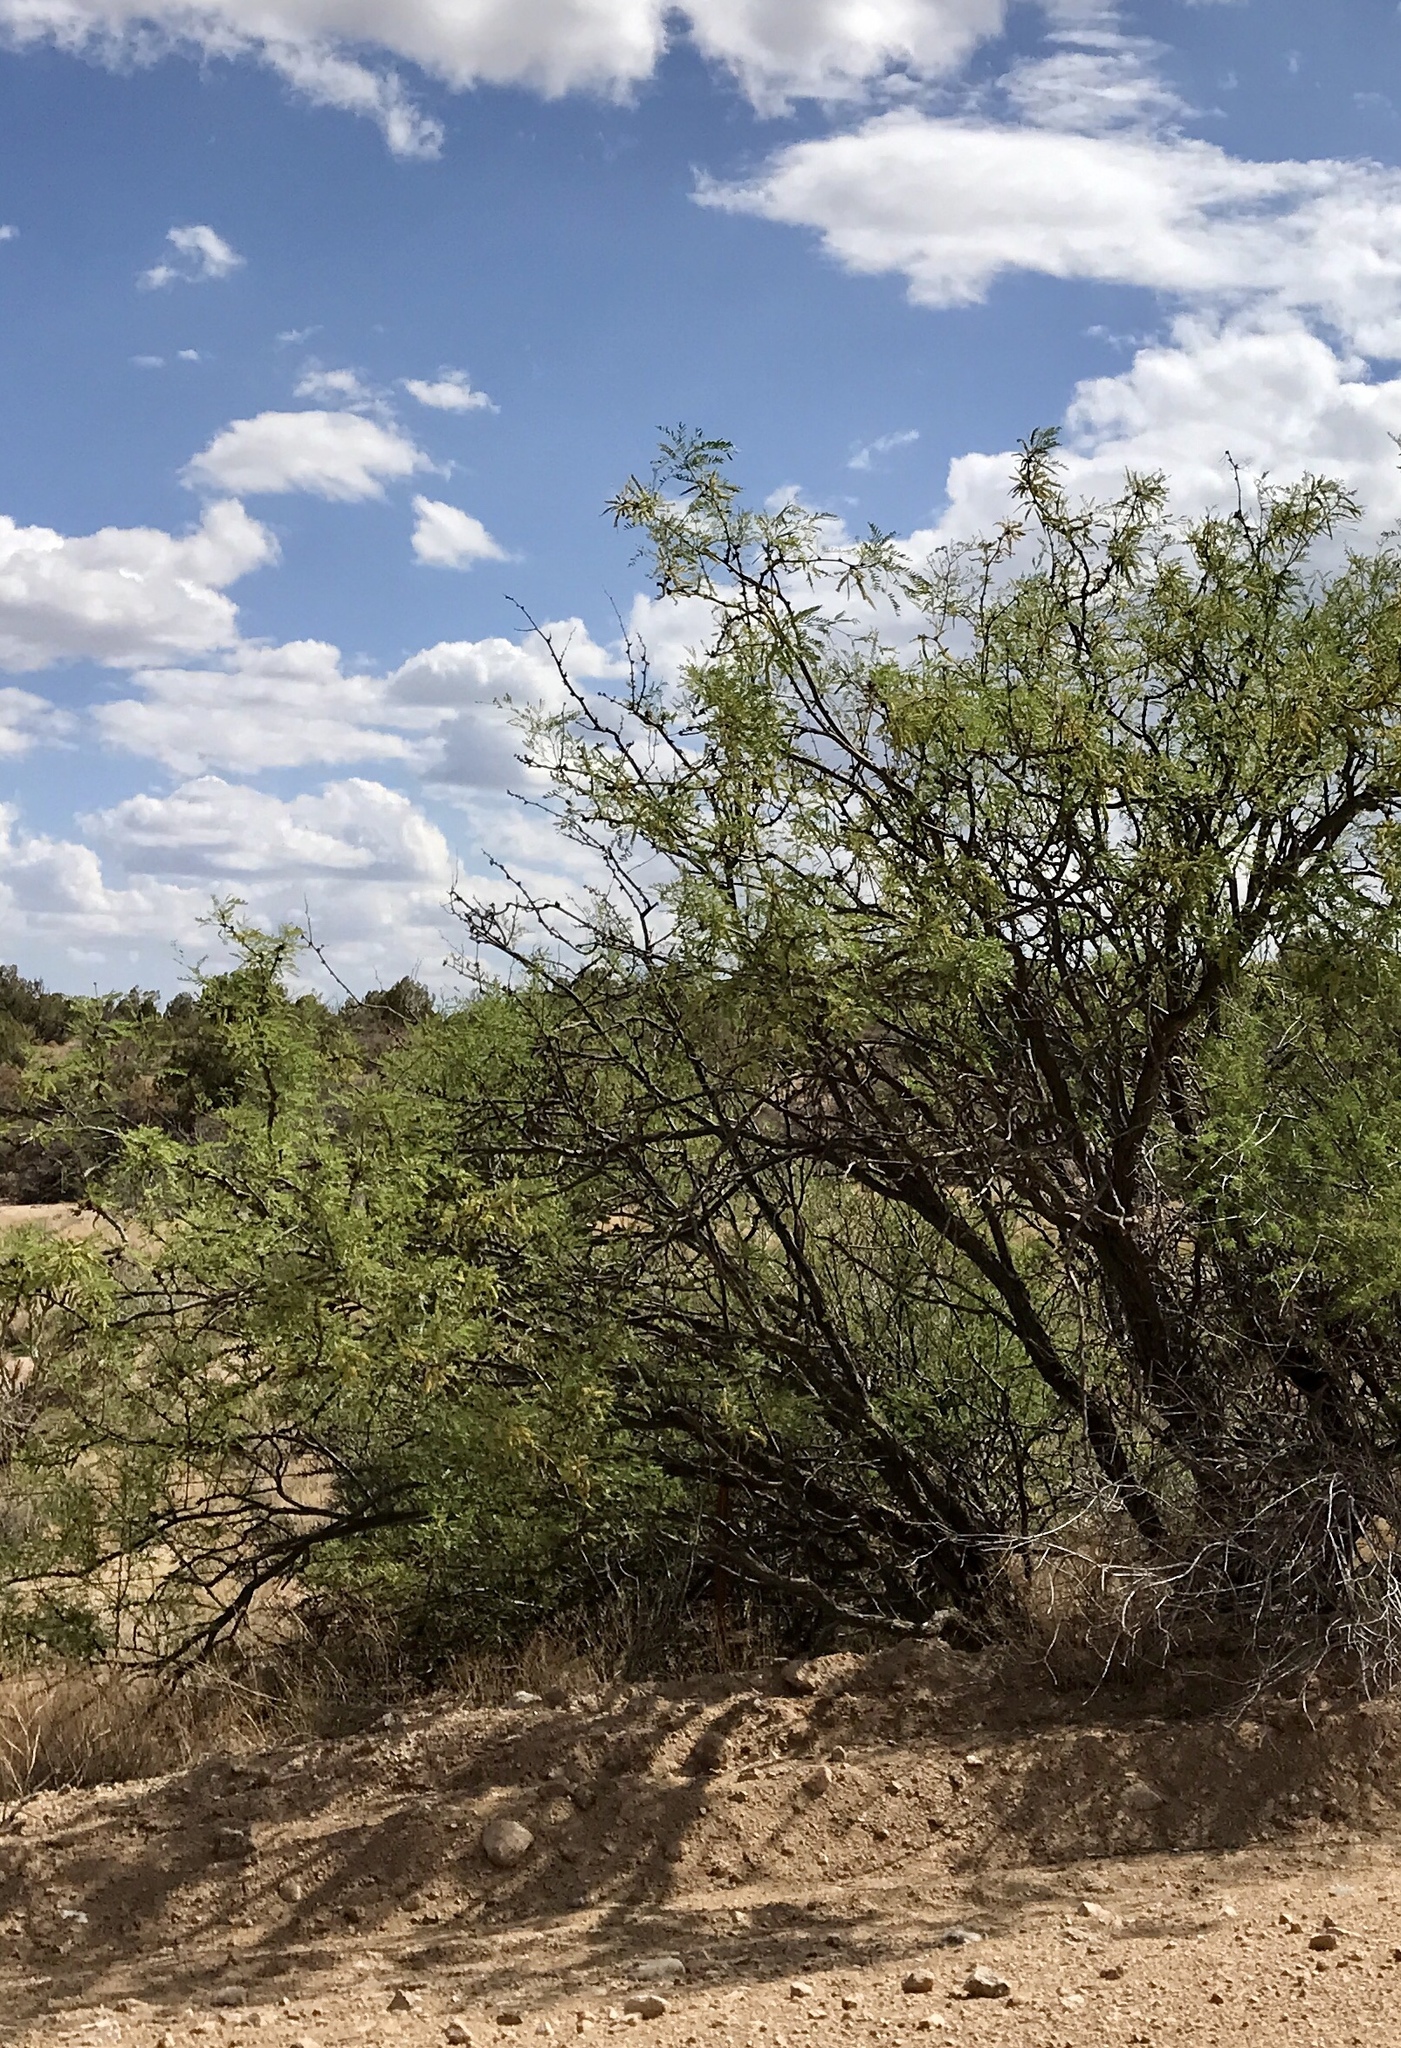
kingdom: Plantae
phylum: Tracheophyta
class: Magnoliopsida
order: Fabales
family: Fabaceae
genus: Prosopis
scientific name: Prosopis glandulosa
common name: Honey mesquite
